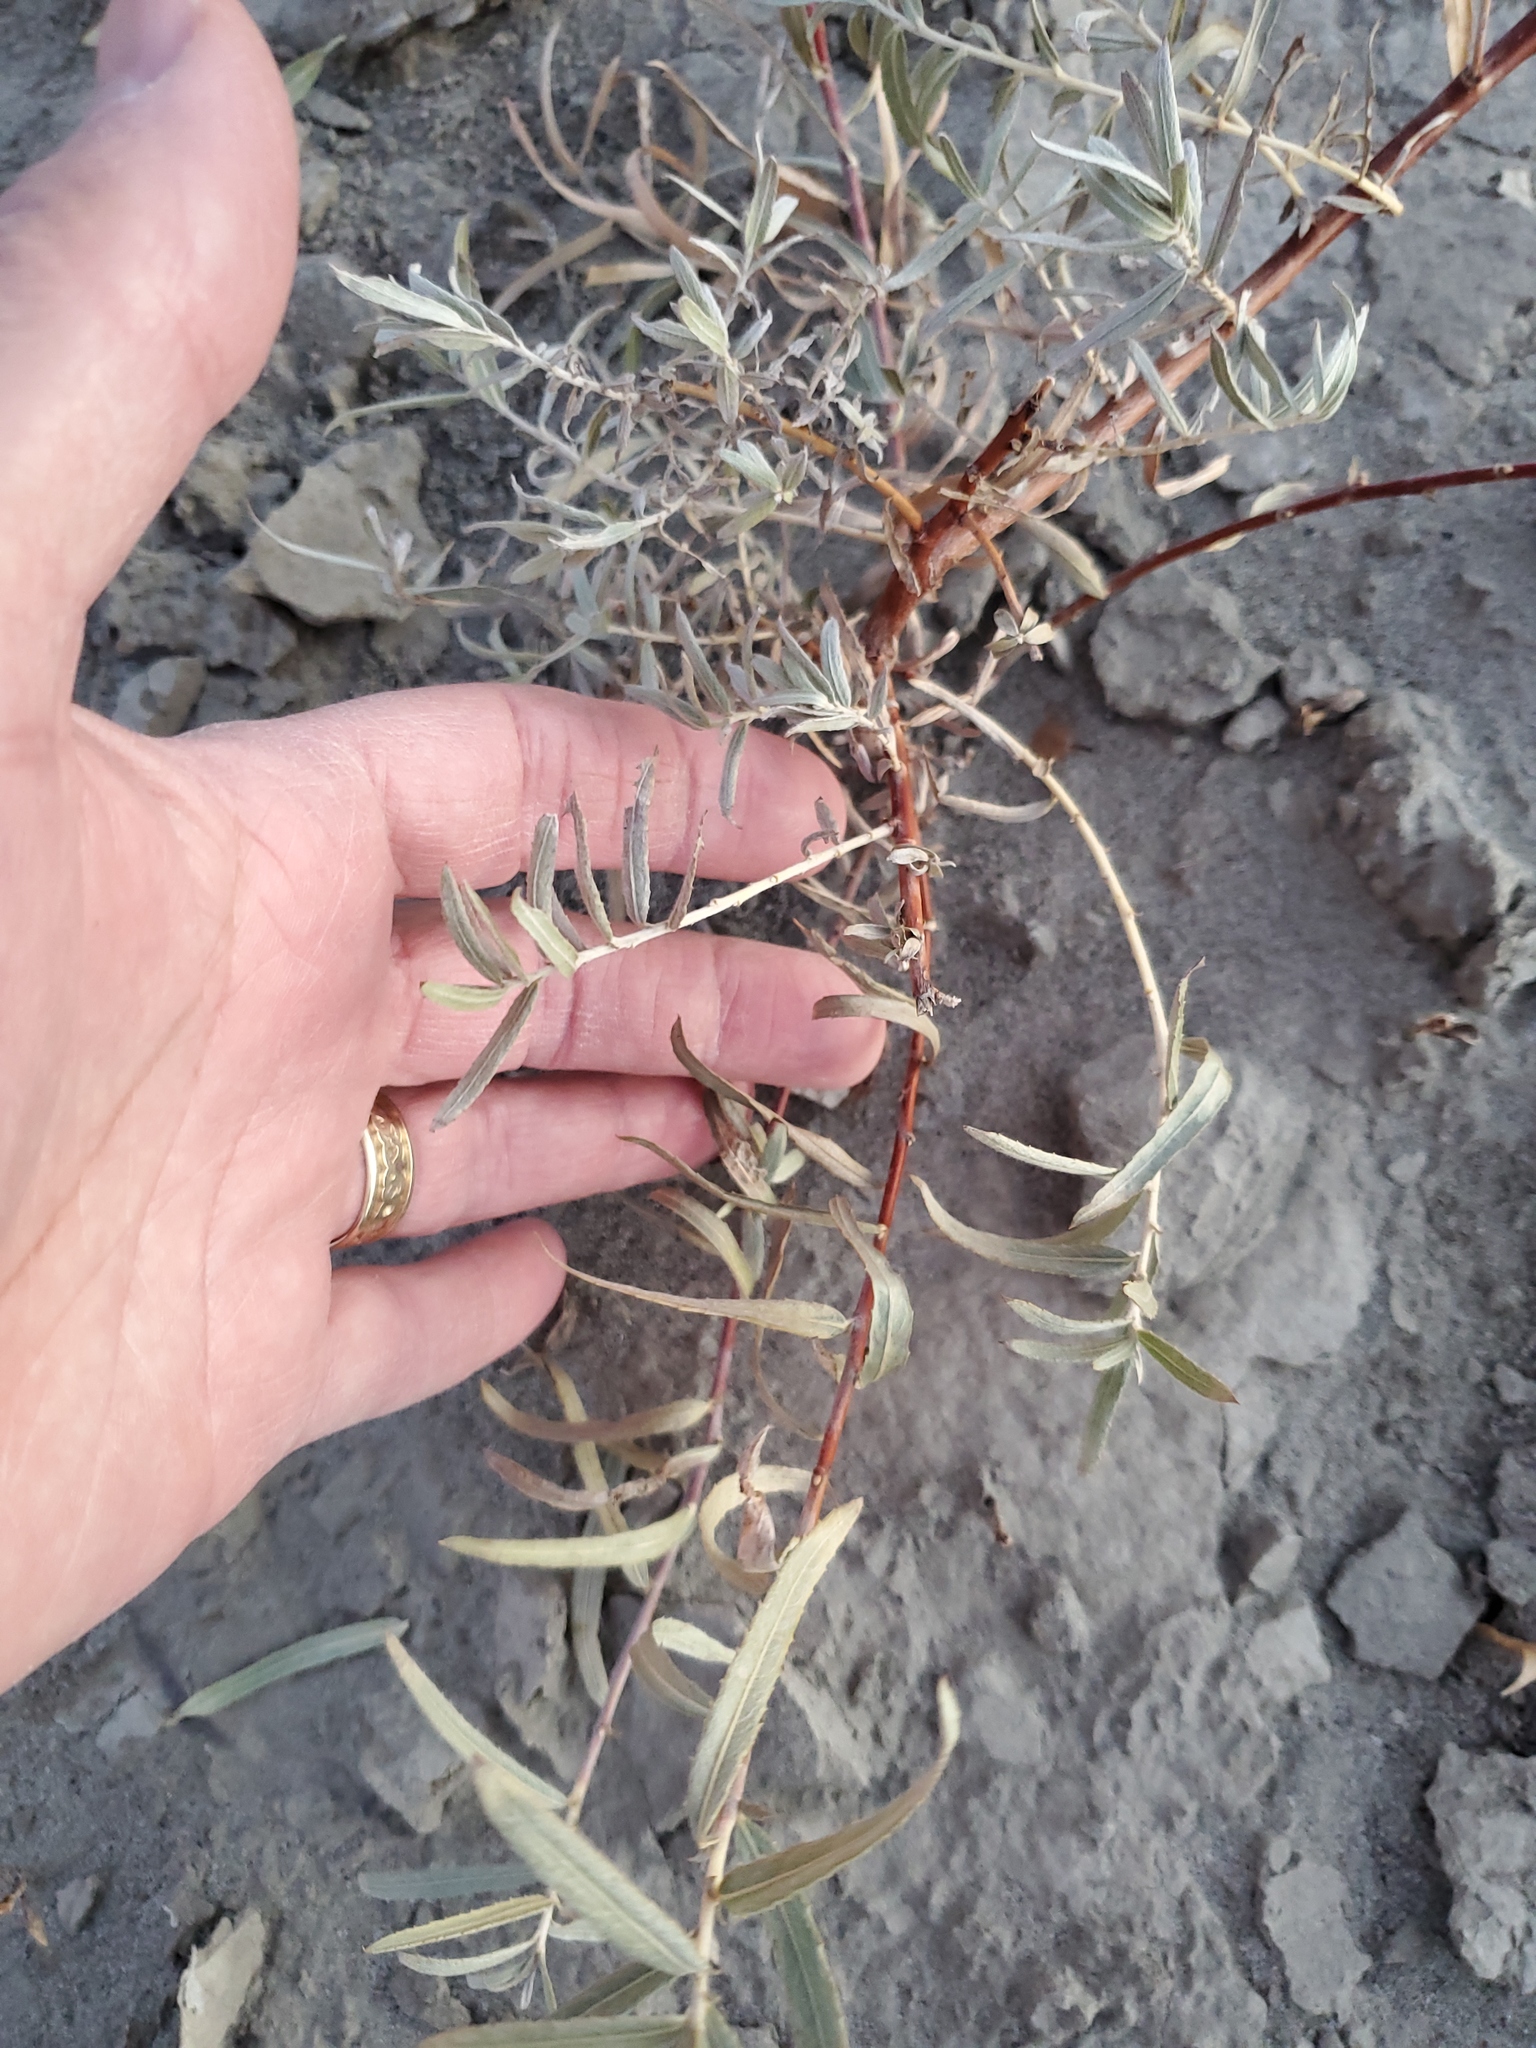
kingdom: Plantae
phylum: Tracheophyta
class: Magnoliopsida
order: Malpighiales
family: Salicaceae
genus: Salix
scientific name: Salix interior
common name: Sandbar willow
